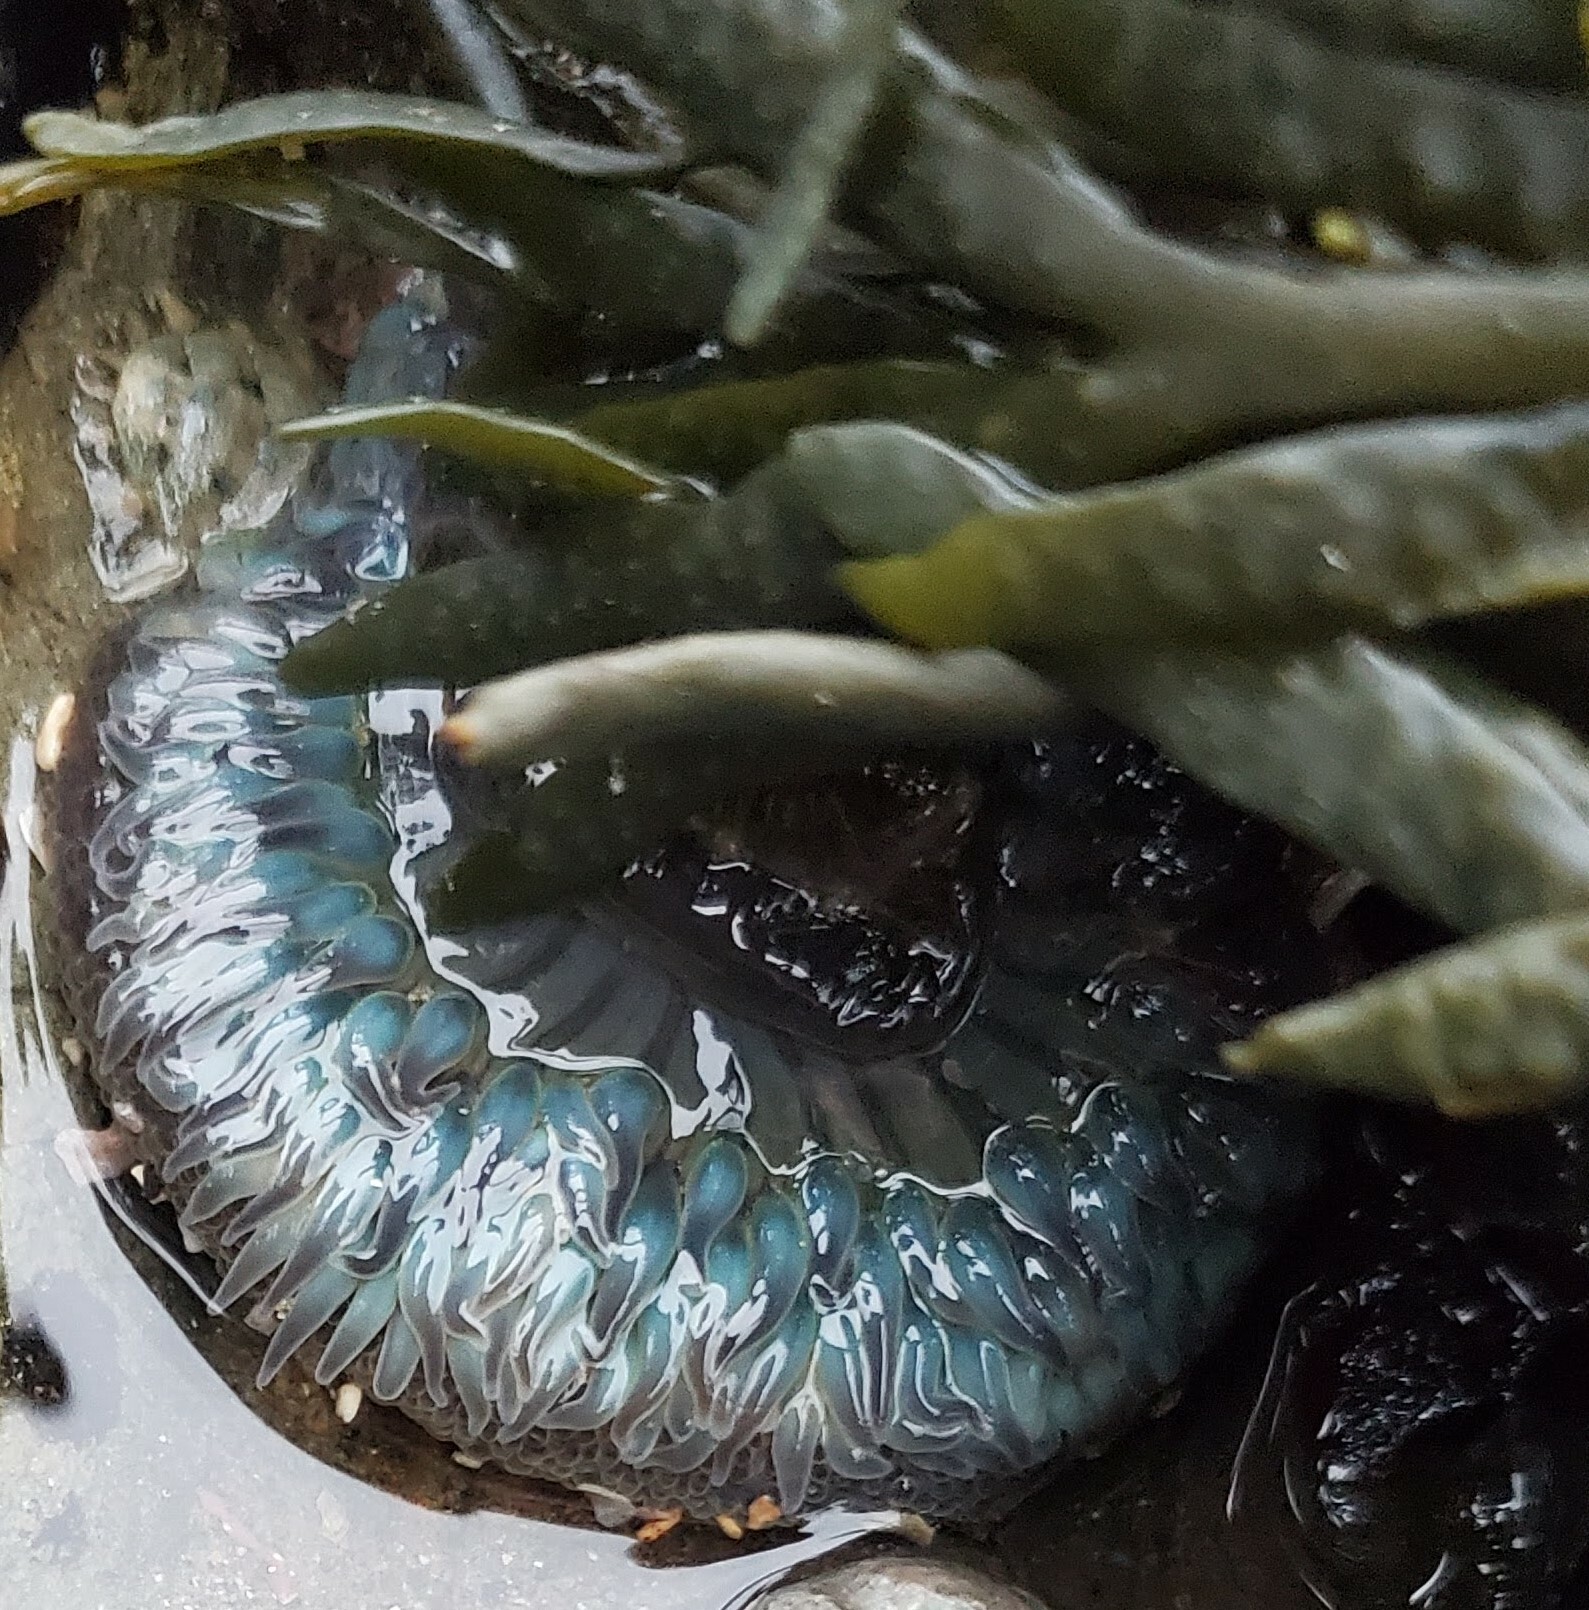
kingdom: Animalia
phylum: Cnidaria
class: Anthozoa
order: Actiniaria
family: Actiniidae
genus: Anthopleura
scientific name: Anthopleura sola
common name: Sun anemone
